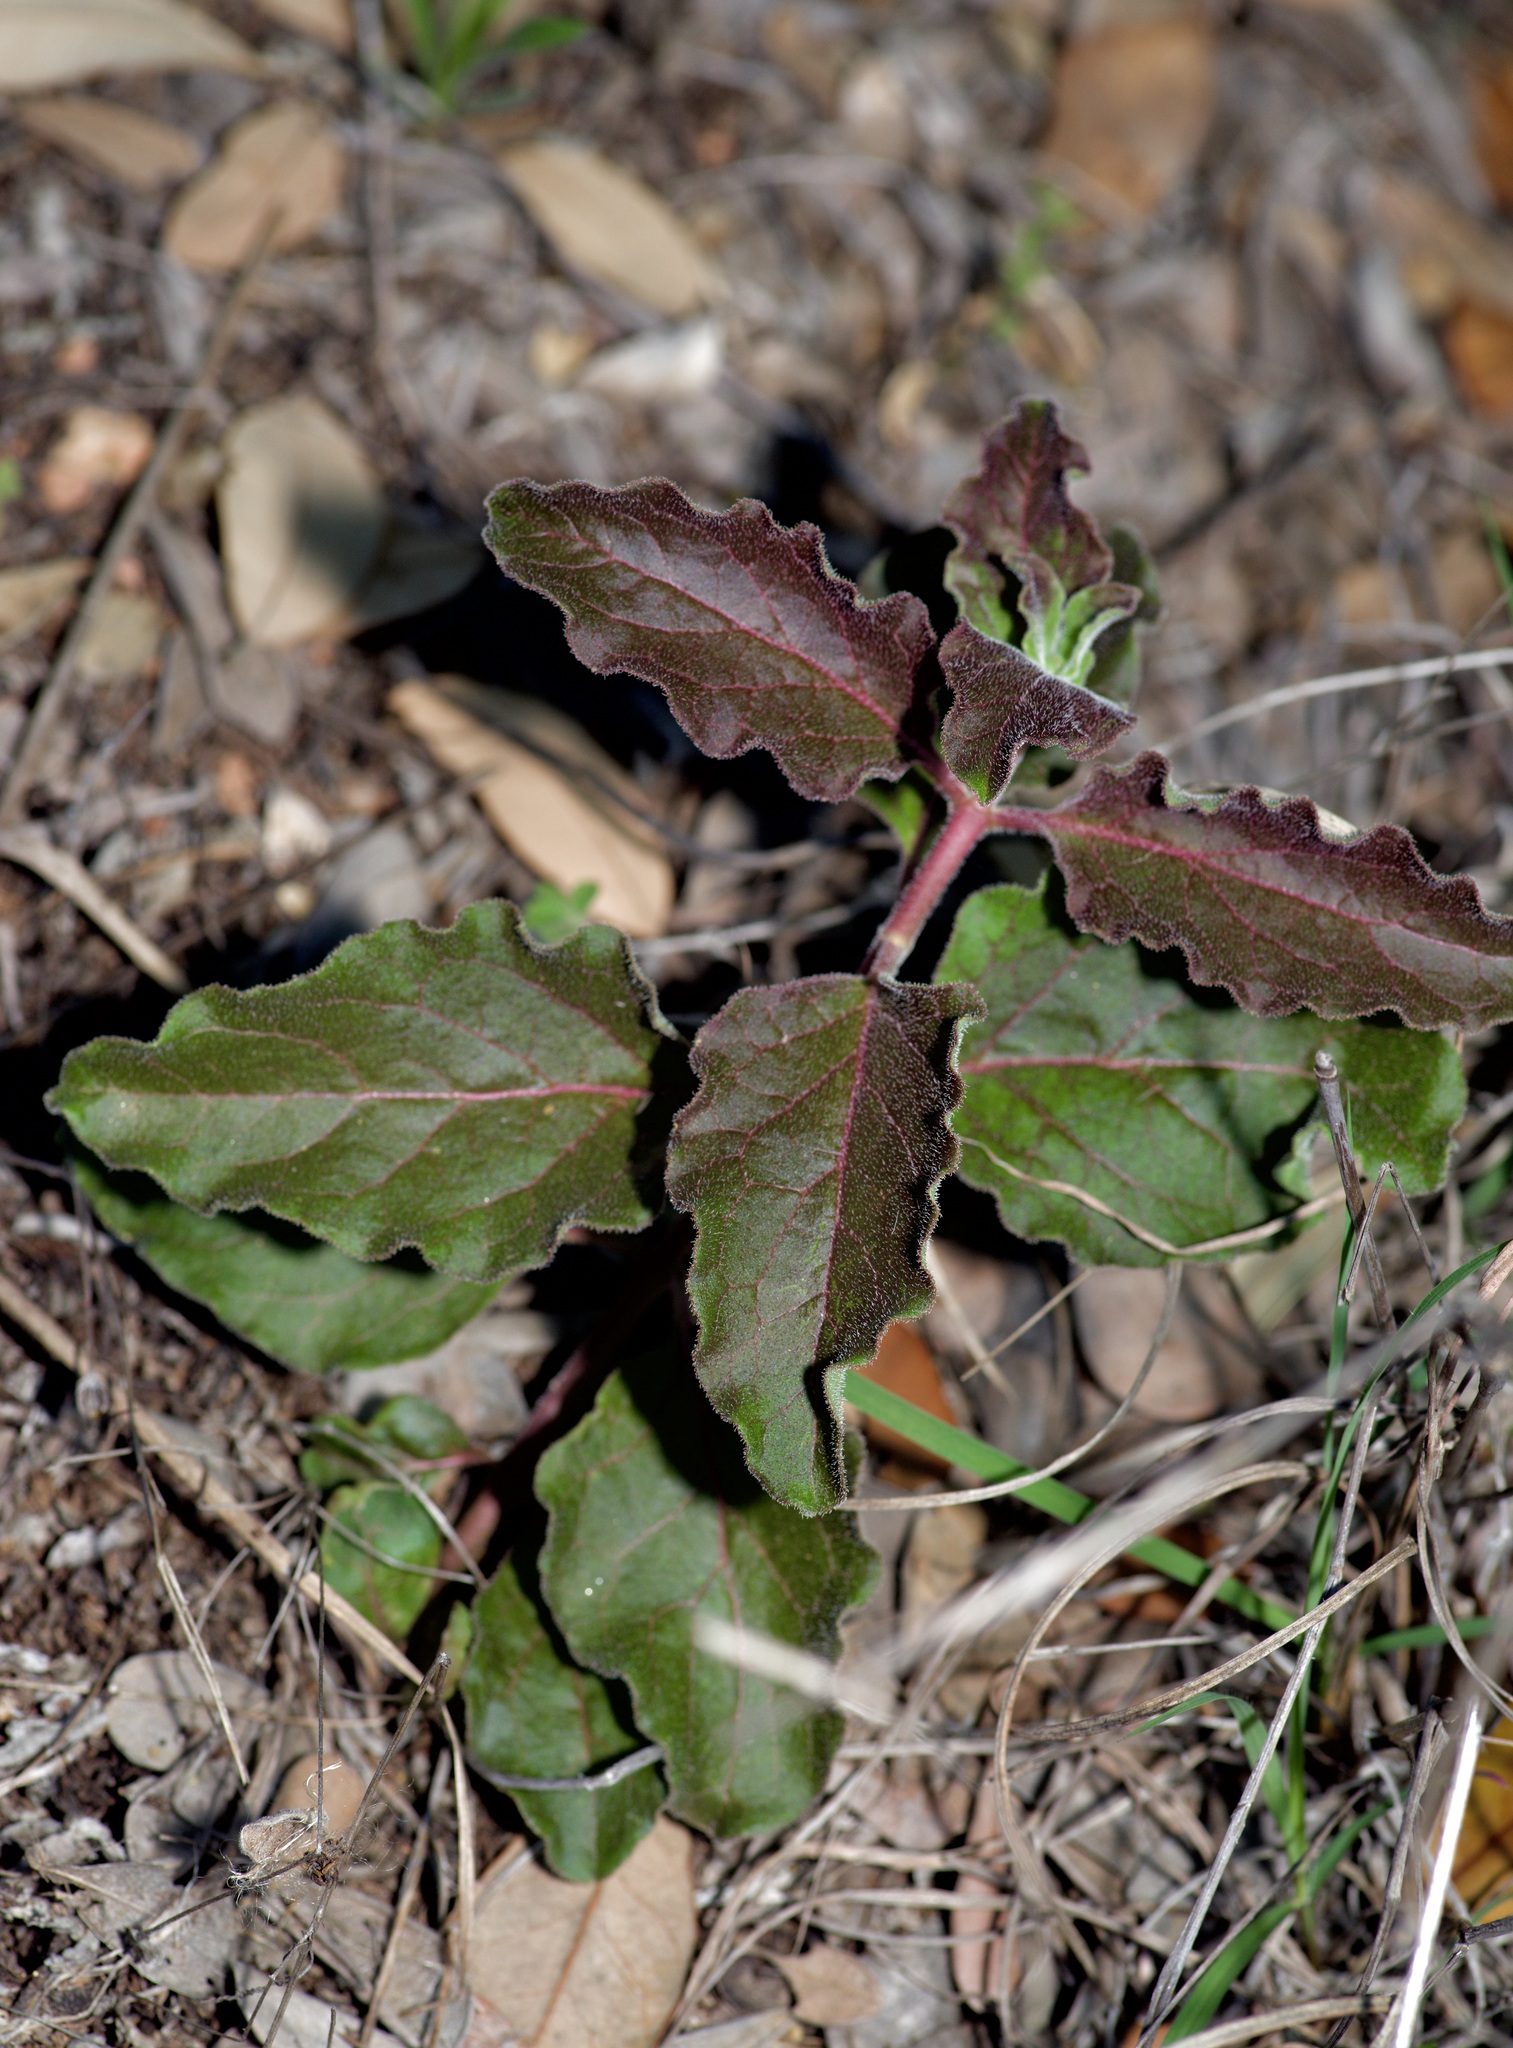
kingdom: Plantae
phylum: Tracheophyta
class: Magnoliopsida
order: Gentianales
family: Apocynaceae
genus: Asclepias
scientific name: Asclepias oenotheroides
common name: Zizotes milkweed
